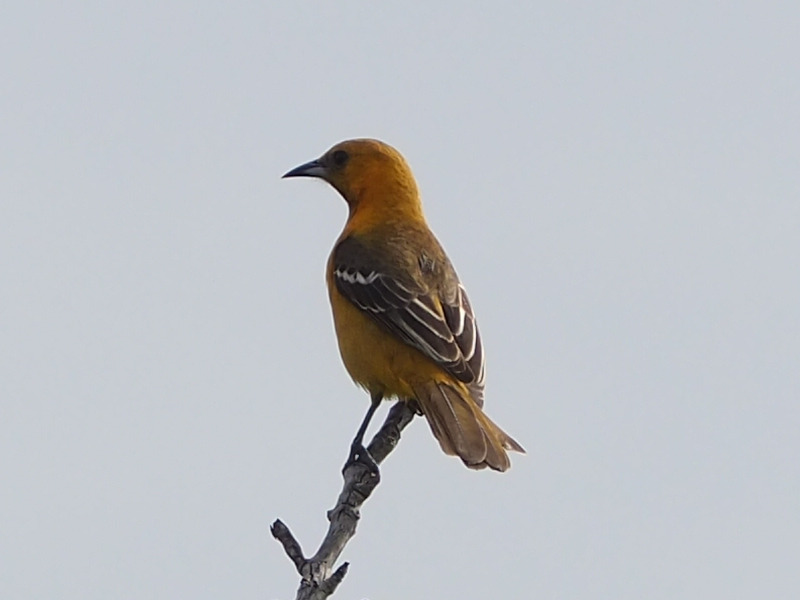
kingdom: Animalia
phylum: Chordata
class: Aves
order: Passeriformes
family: Icteridae
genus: Icterus
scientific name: Icterus cucullatus
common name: Hooded oriole
